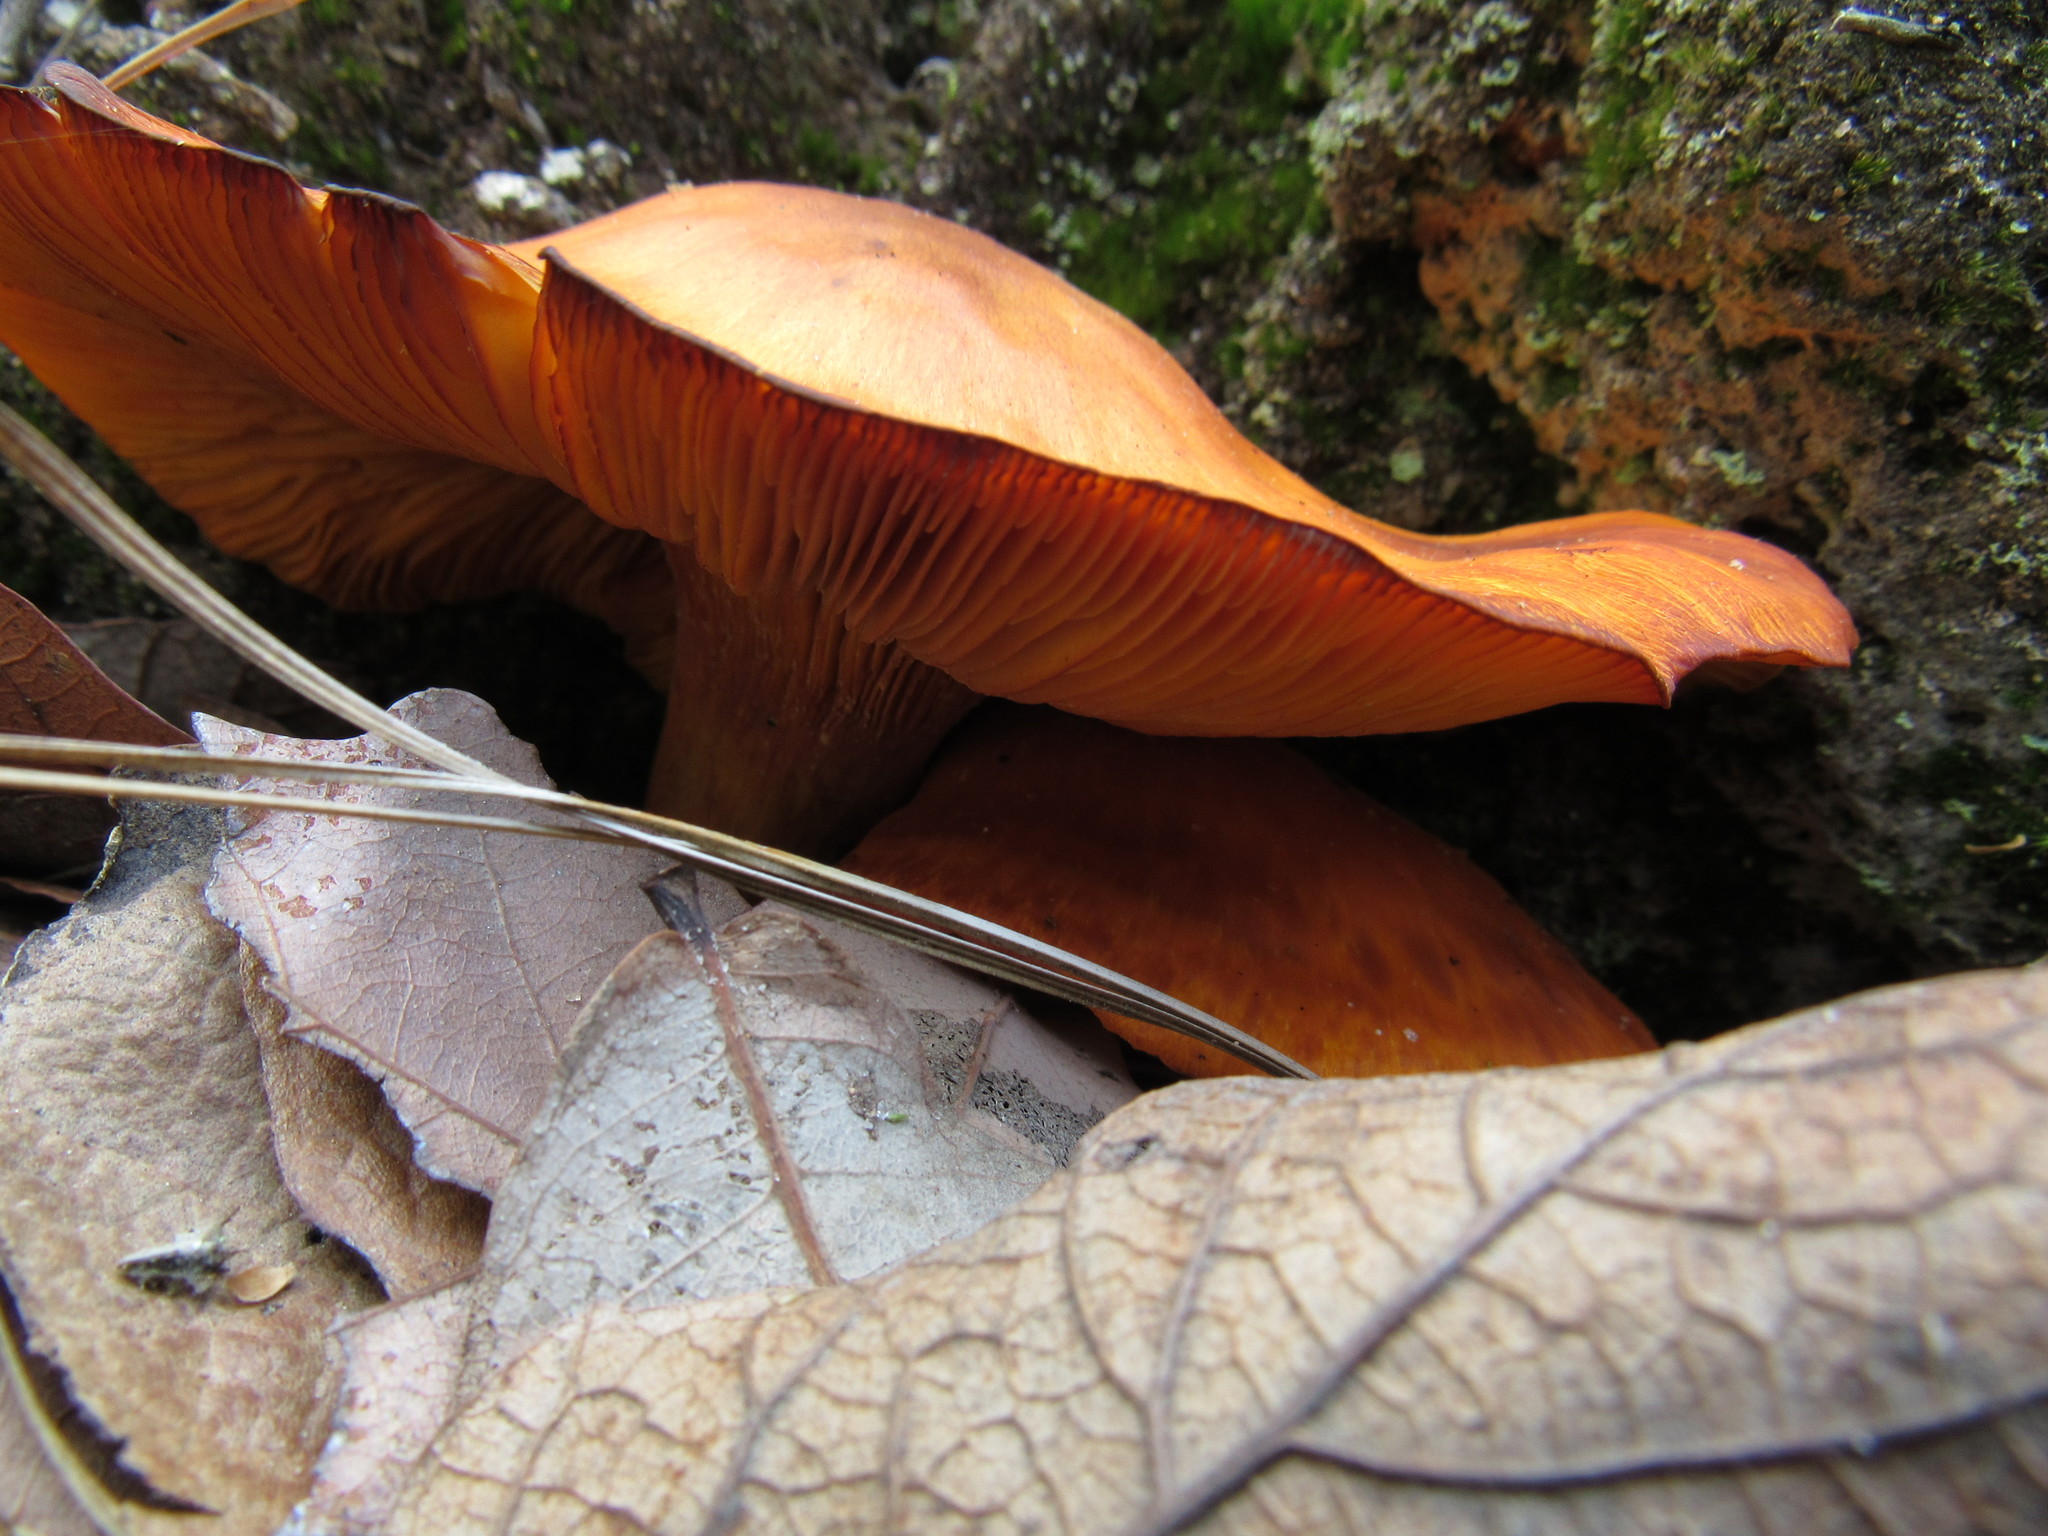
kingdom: Fungi
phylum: Basidiomycota
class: Agaricomycetes
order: Agaricales
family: Omphalotaceae
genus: Omphalotus
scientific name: Omphalotus illudens
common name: Jack o lantern
